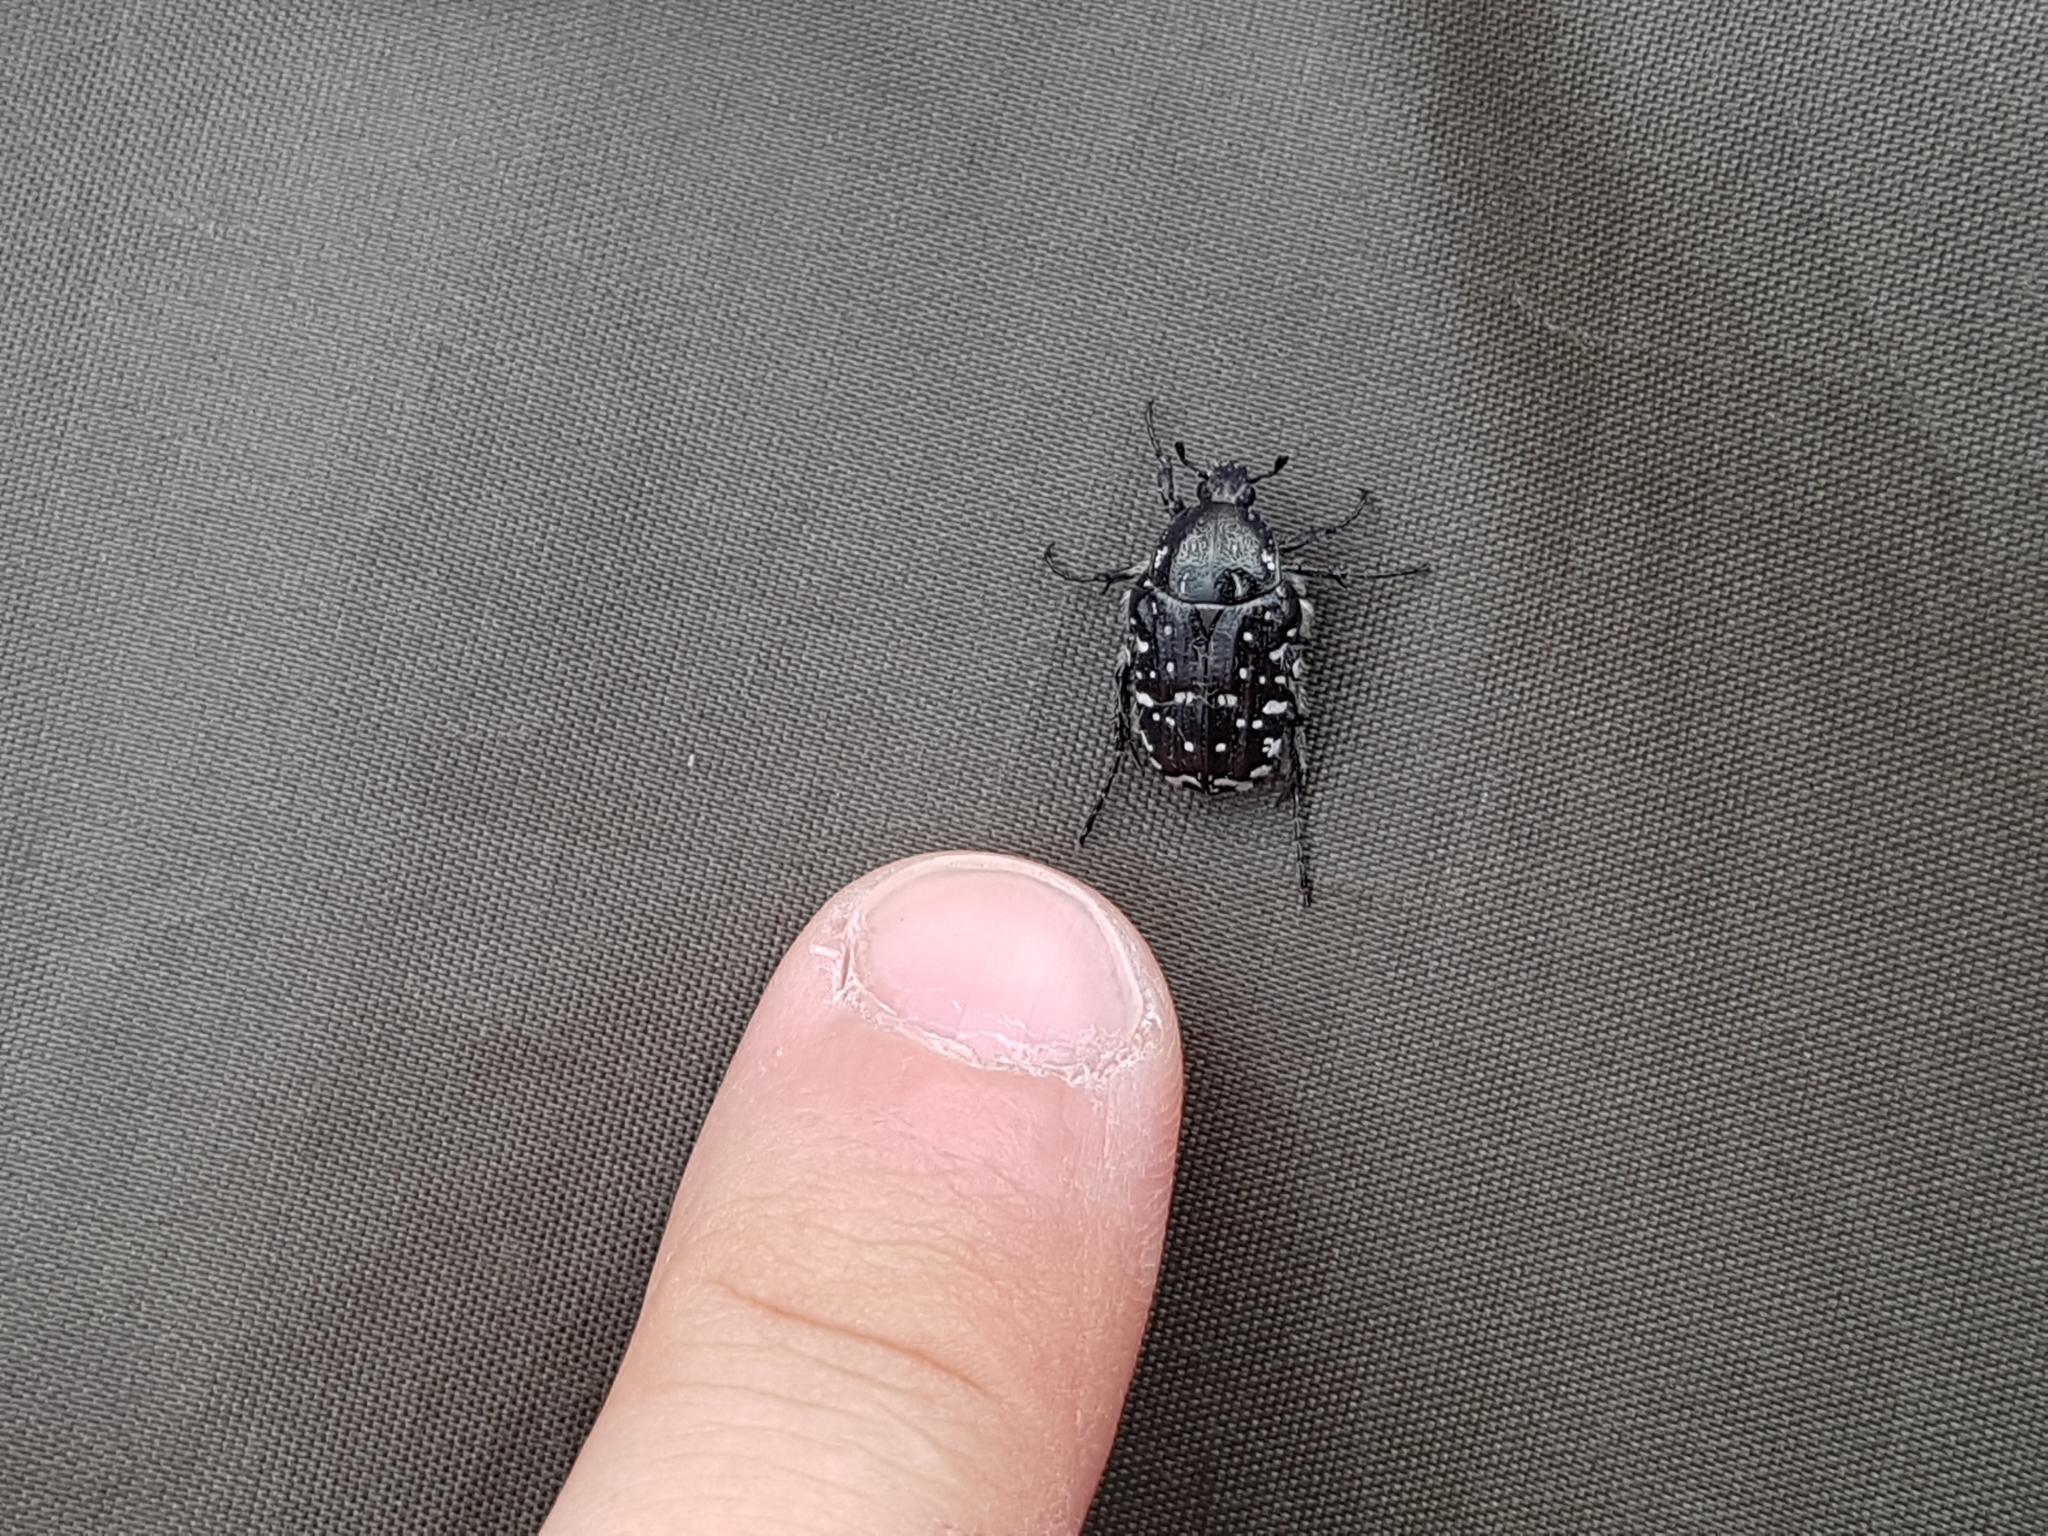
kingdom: Animalia
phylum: Arthropoda
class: Insecta
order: Coleoptera
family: Scarabaeidae
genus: Oxythyrea
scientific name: Oxythyrea funesta
